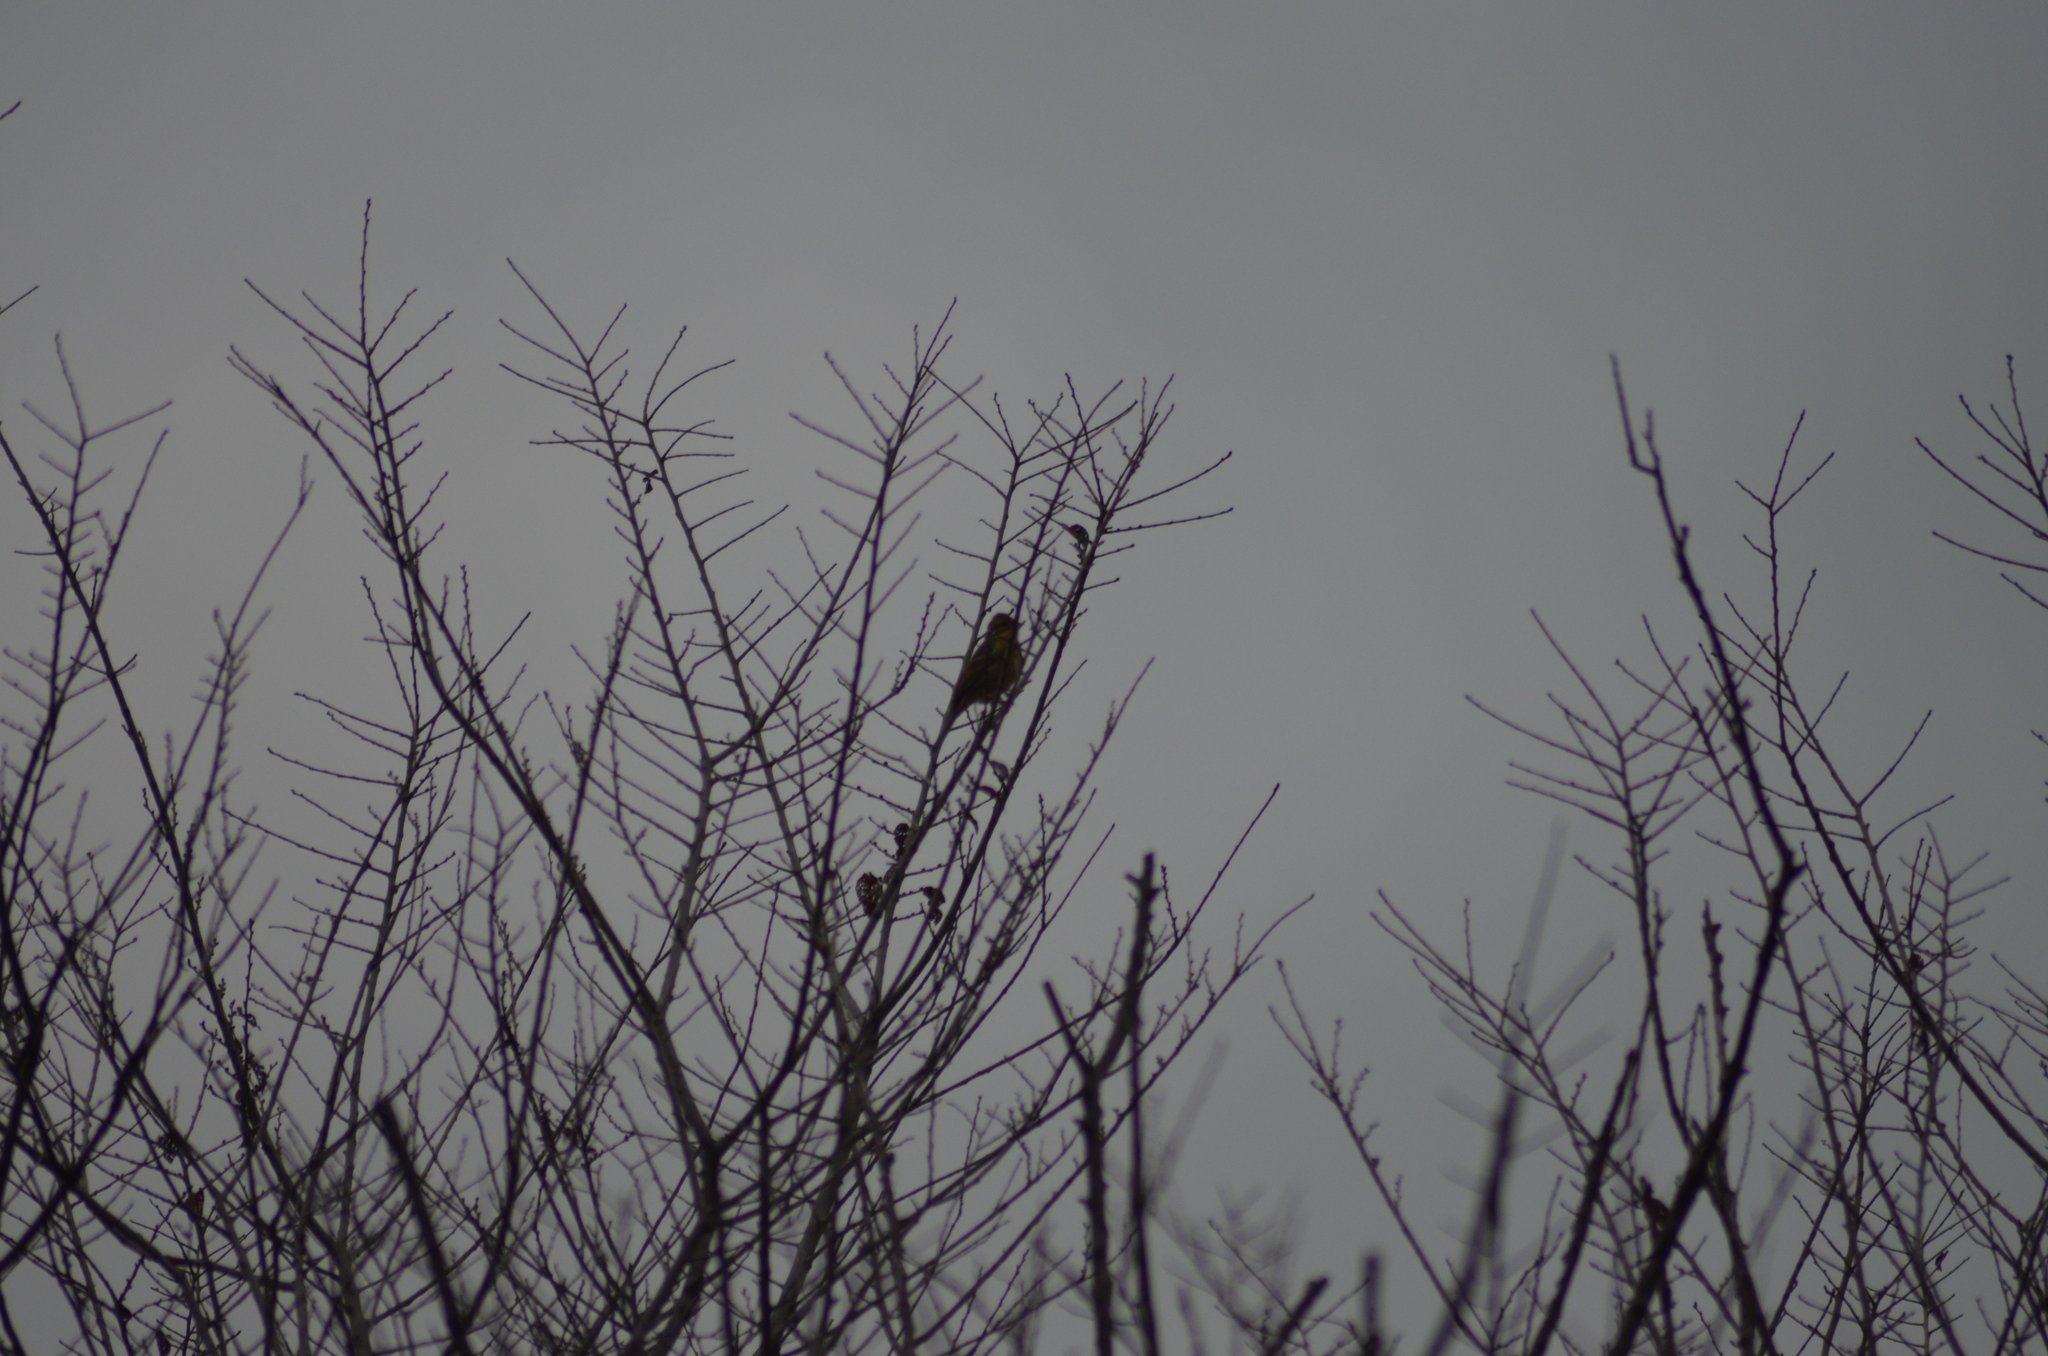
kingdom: Animalia
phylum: Chordata
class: Aves
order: Passeriformes
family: Emberizidae
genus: Emberiza
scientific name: Emberiza cirlus
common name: Cirl bunting
